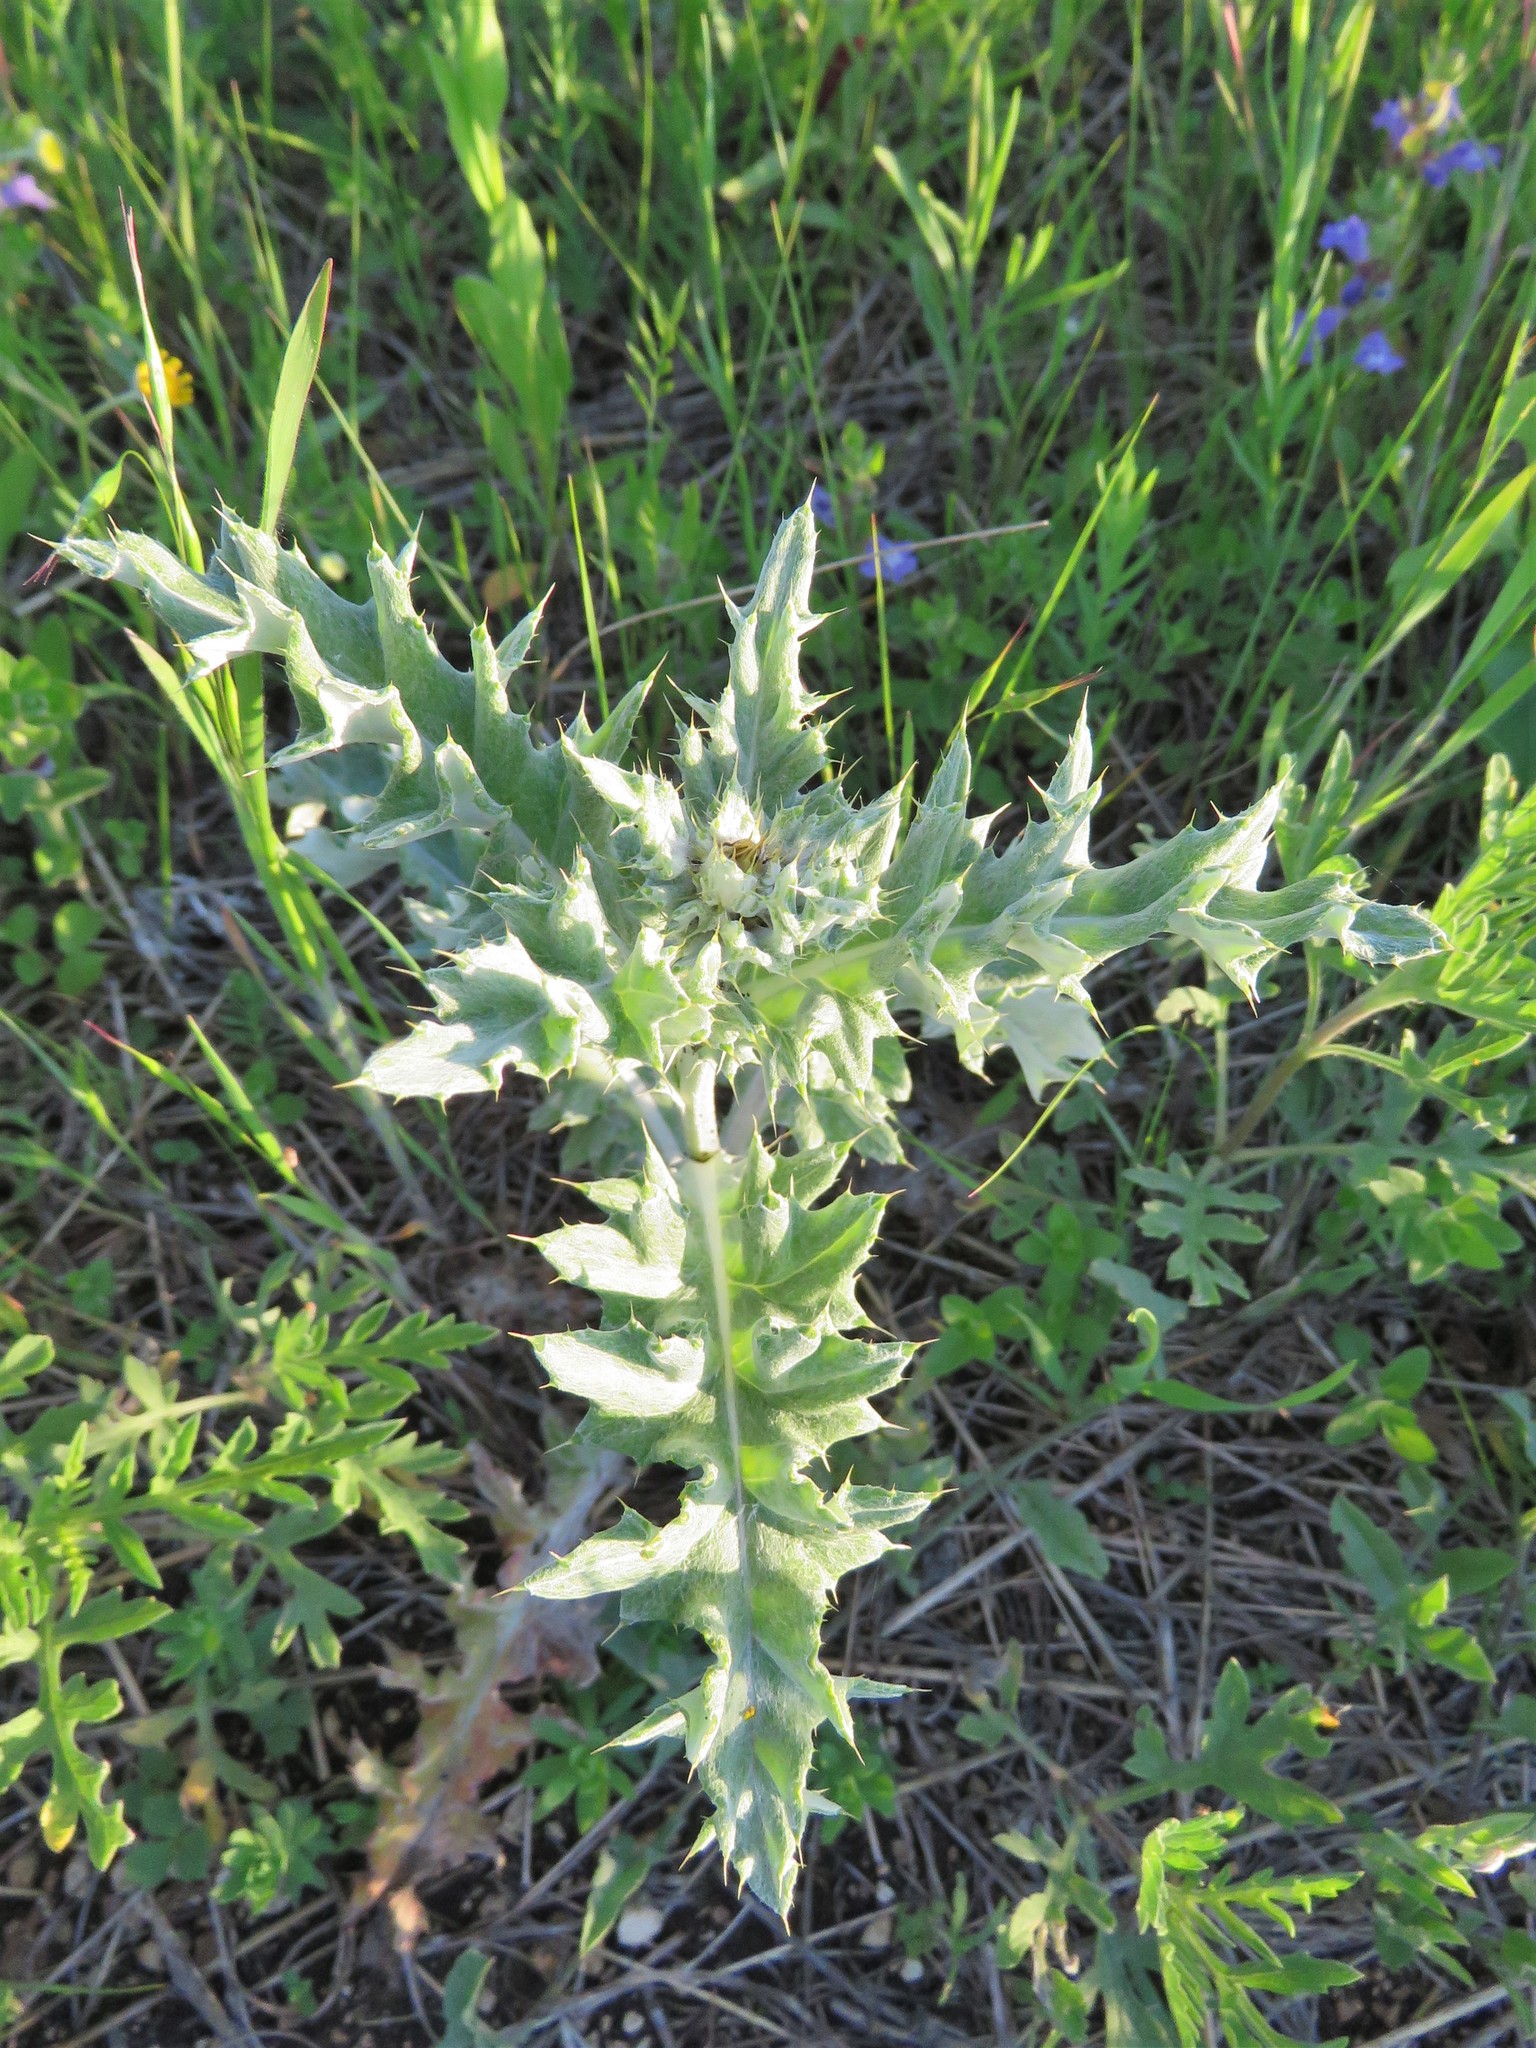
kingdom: Plantae
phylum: Tracheophyta
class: Magnoliopsida
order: Asterales
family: Asteraceae
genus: Cirsium
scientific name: Cirsium undulatum
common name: Pasture thistle
